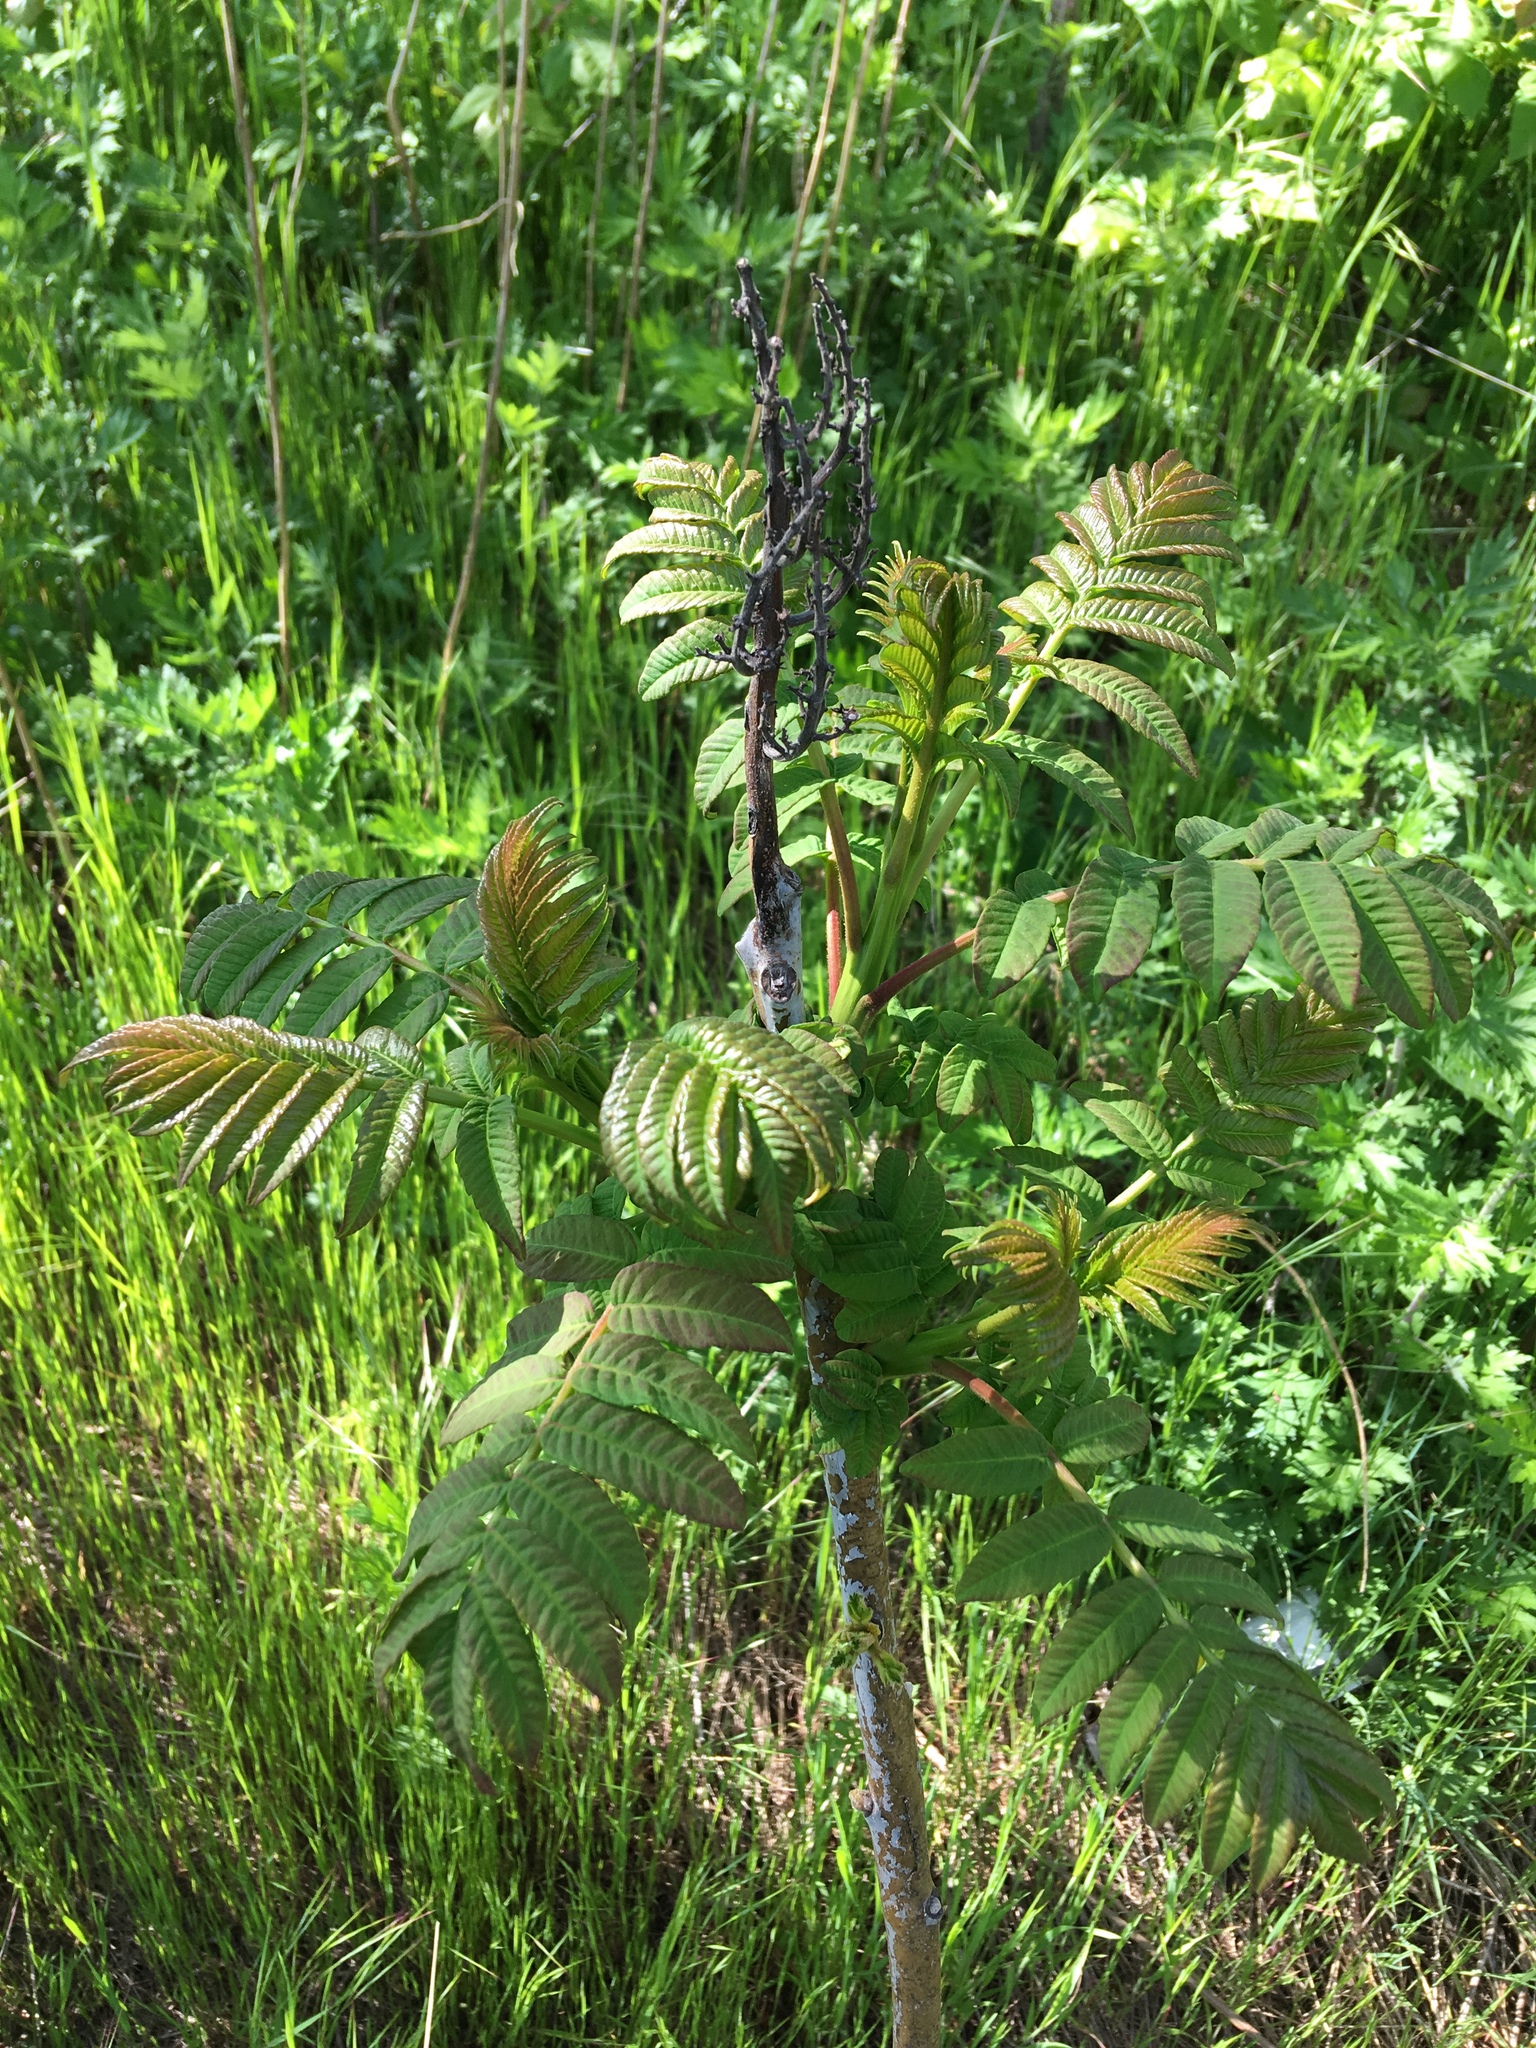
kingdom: Plantae
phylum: Tracheophyta
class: Magnoliopsida
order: Sapindales
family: Anacardiaceae
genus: Rhus
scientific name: Rhus typhina
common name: Staghorn sumac
